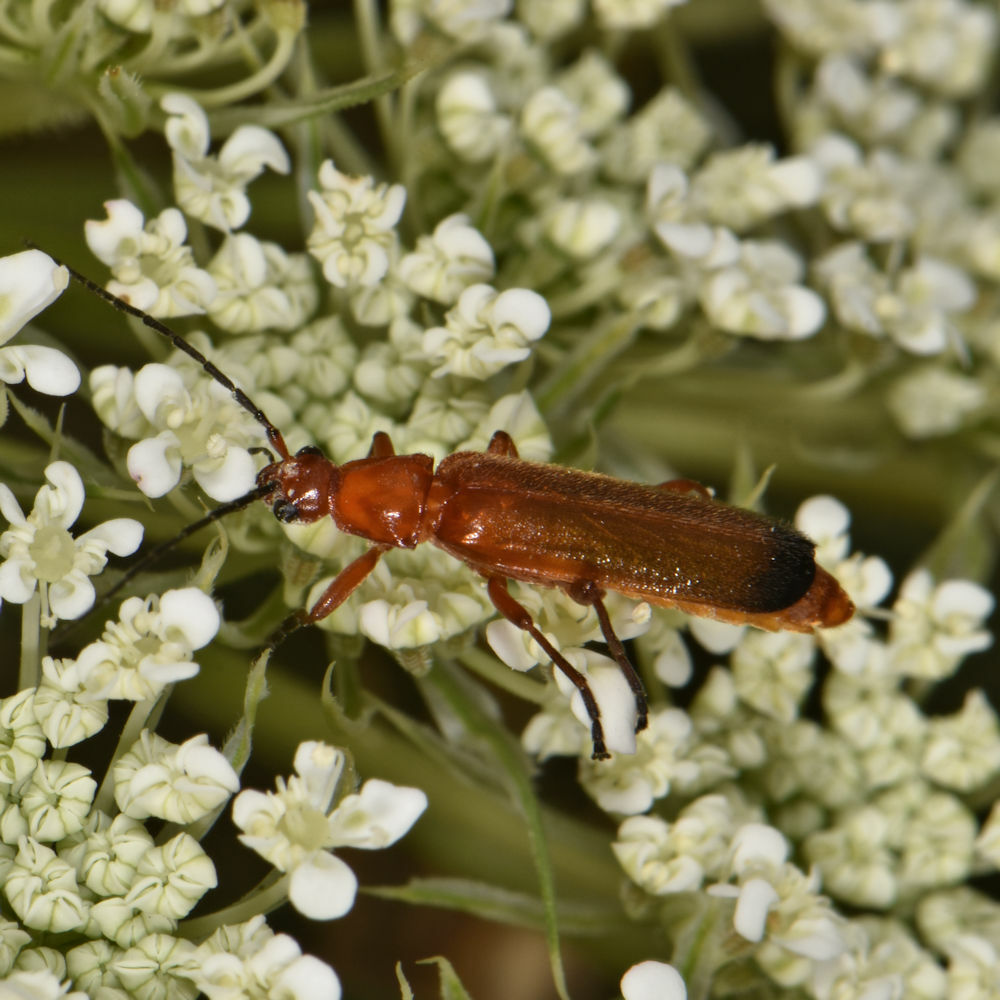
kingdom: Animalia
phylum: Arthropoda
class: Insecta
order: Coleoptera
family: Cantharidae
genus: Rhagonycha
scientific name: Rhagonycha fulva
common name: Common red soldier beetle
